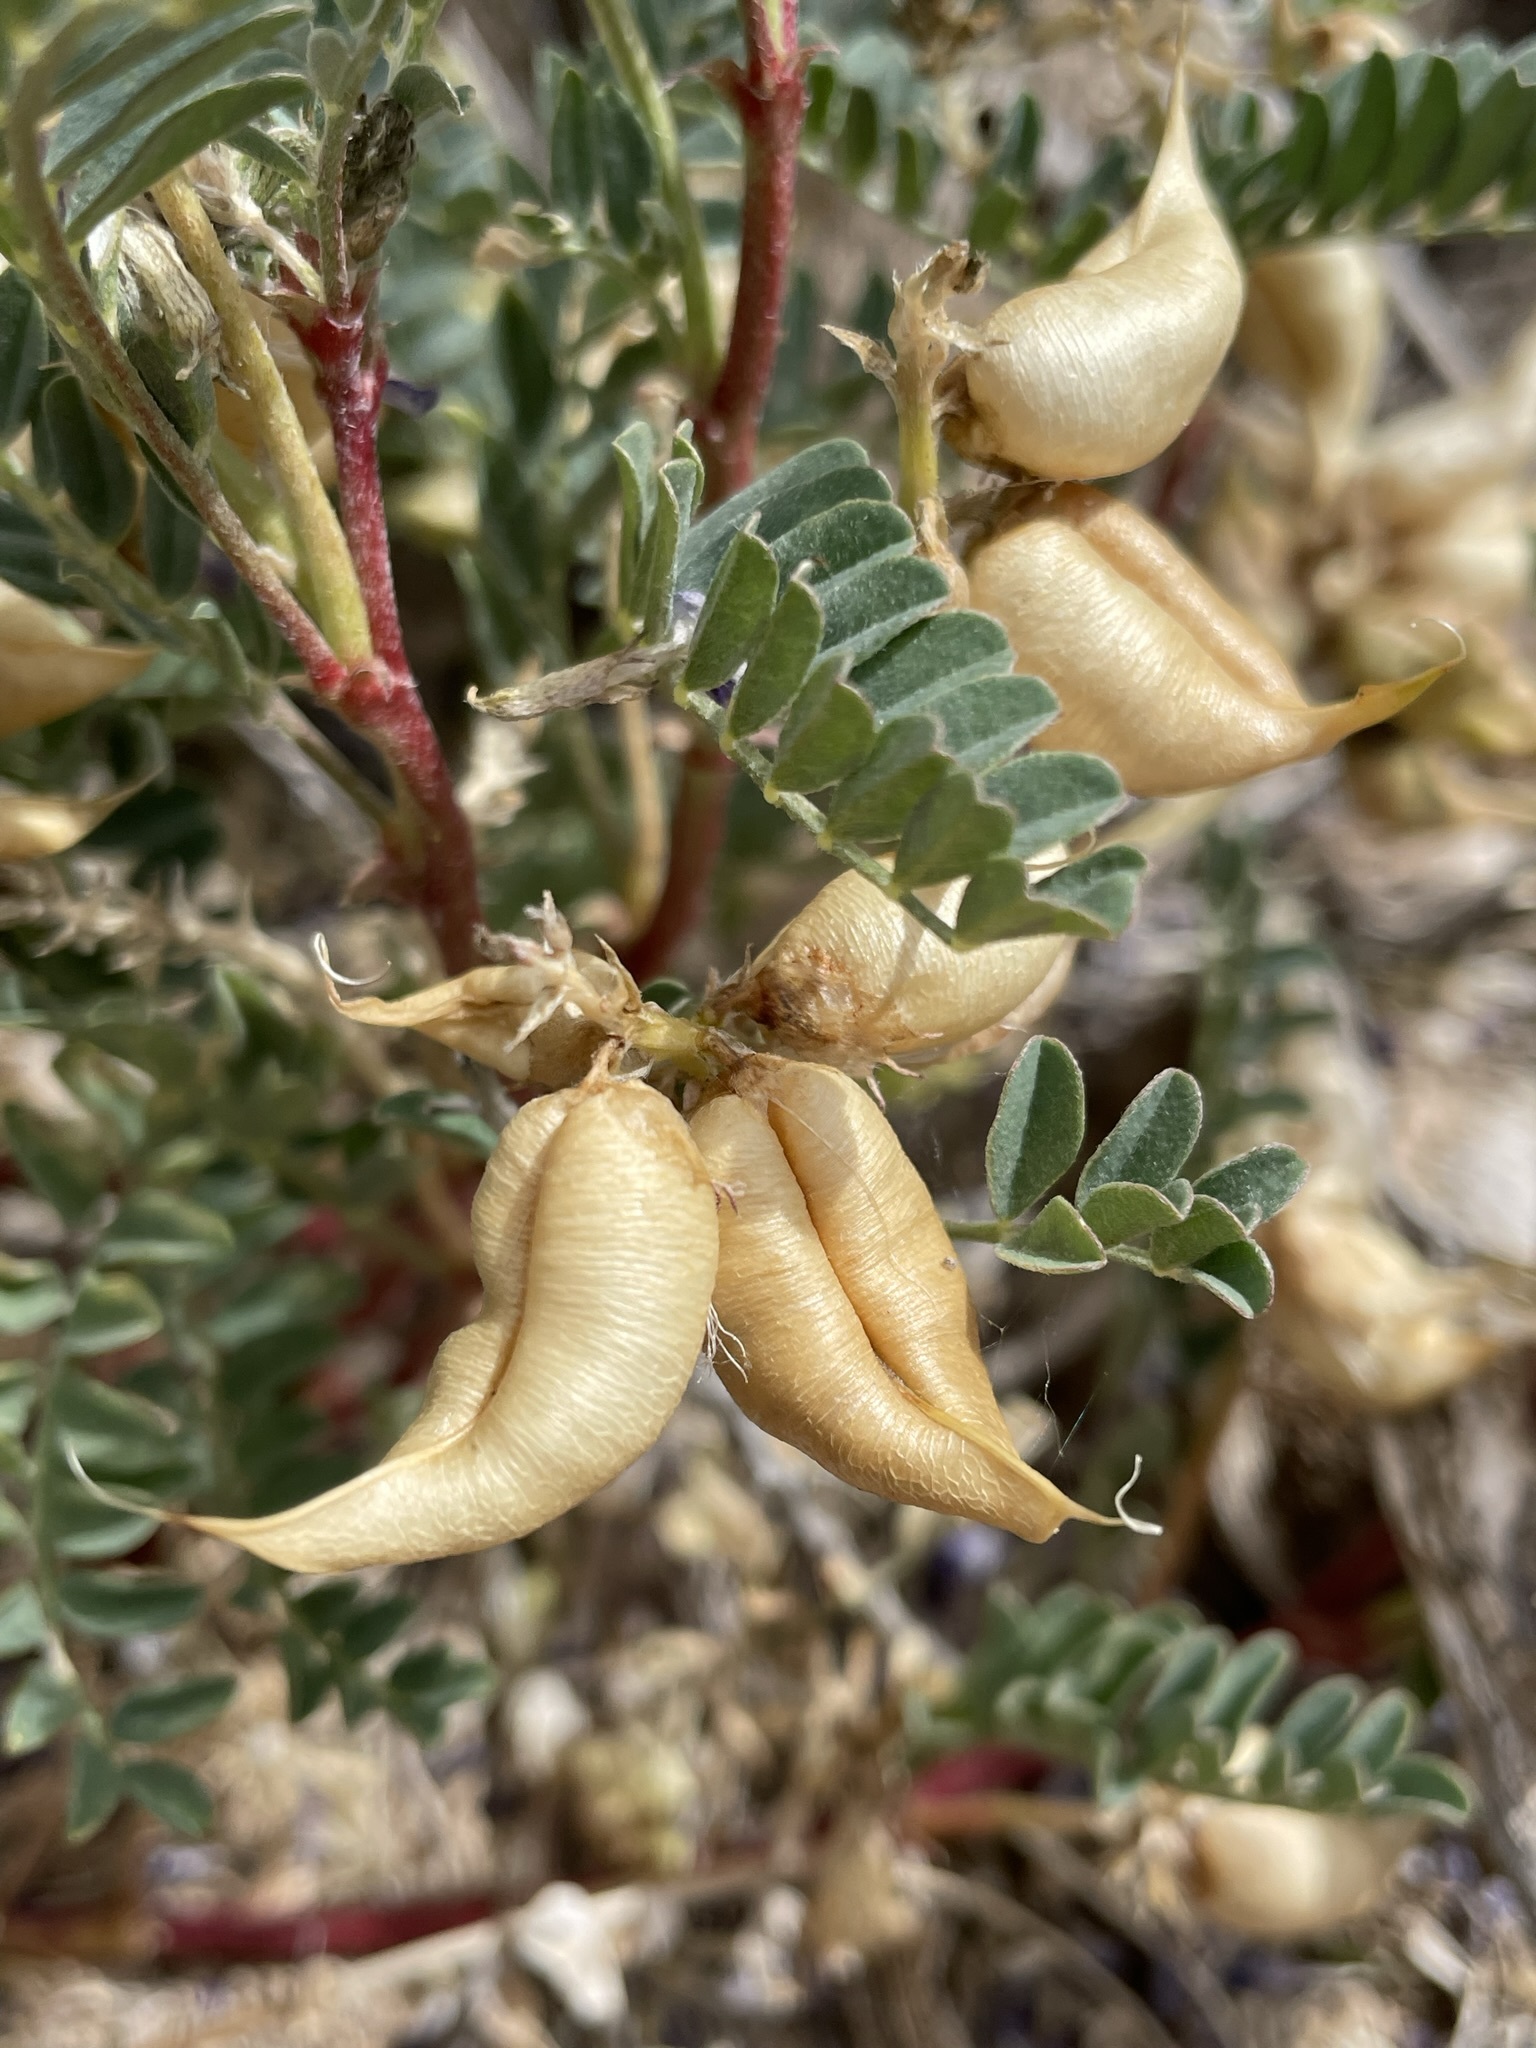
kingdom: Plantae
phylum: Tracheophyta
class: Magnoliopsida
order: Fabales
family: Fabaceae
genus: Astragalus
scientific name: Astragalus lentiginosus
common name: Freckled milkvetch
